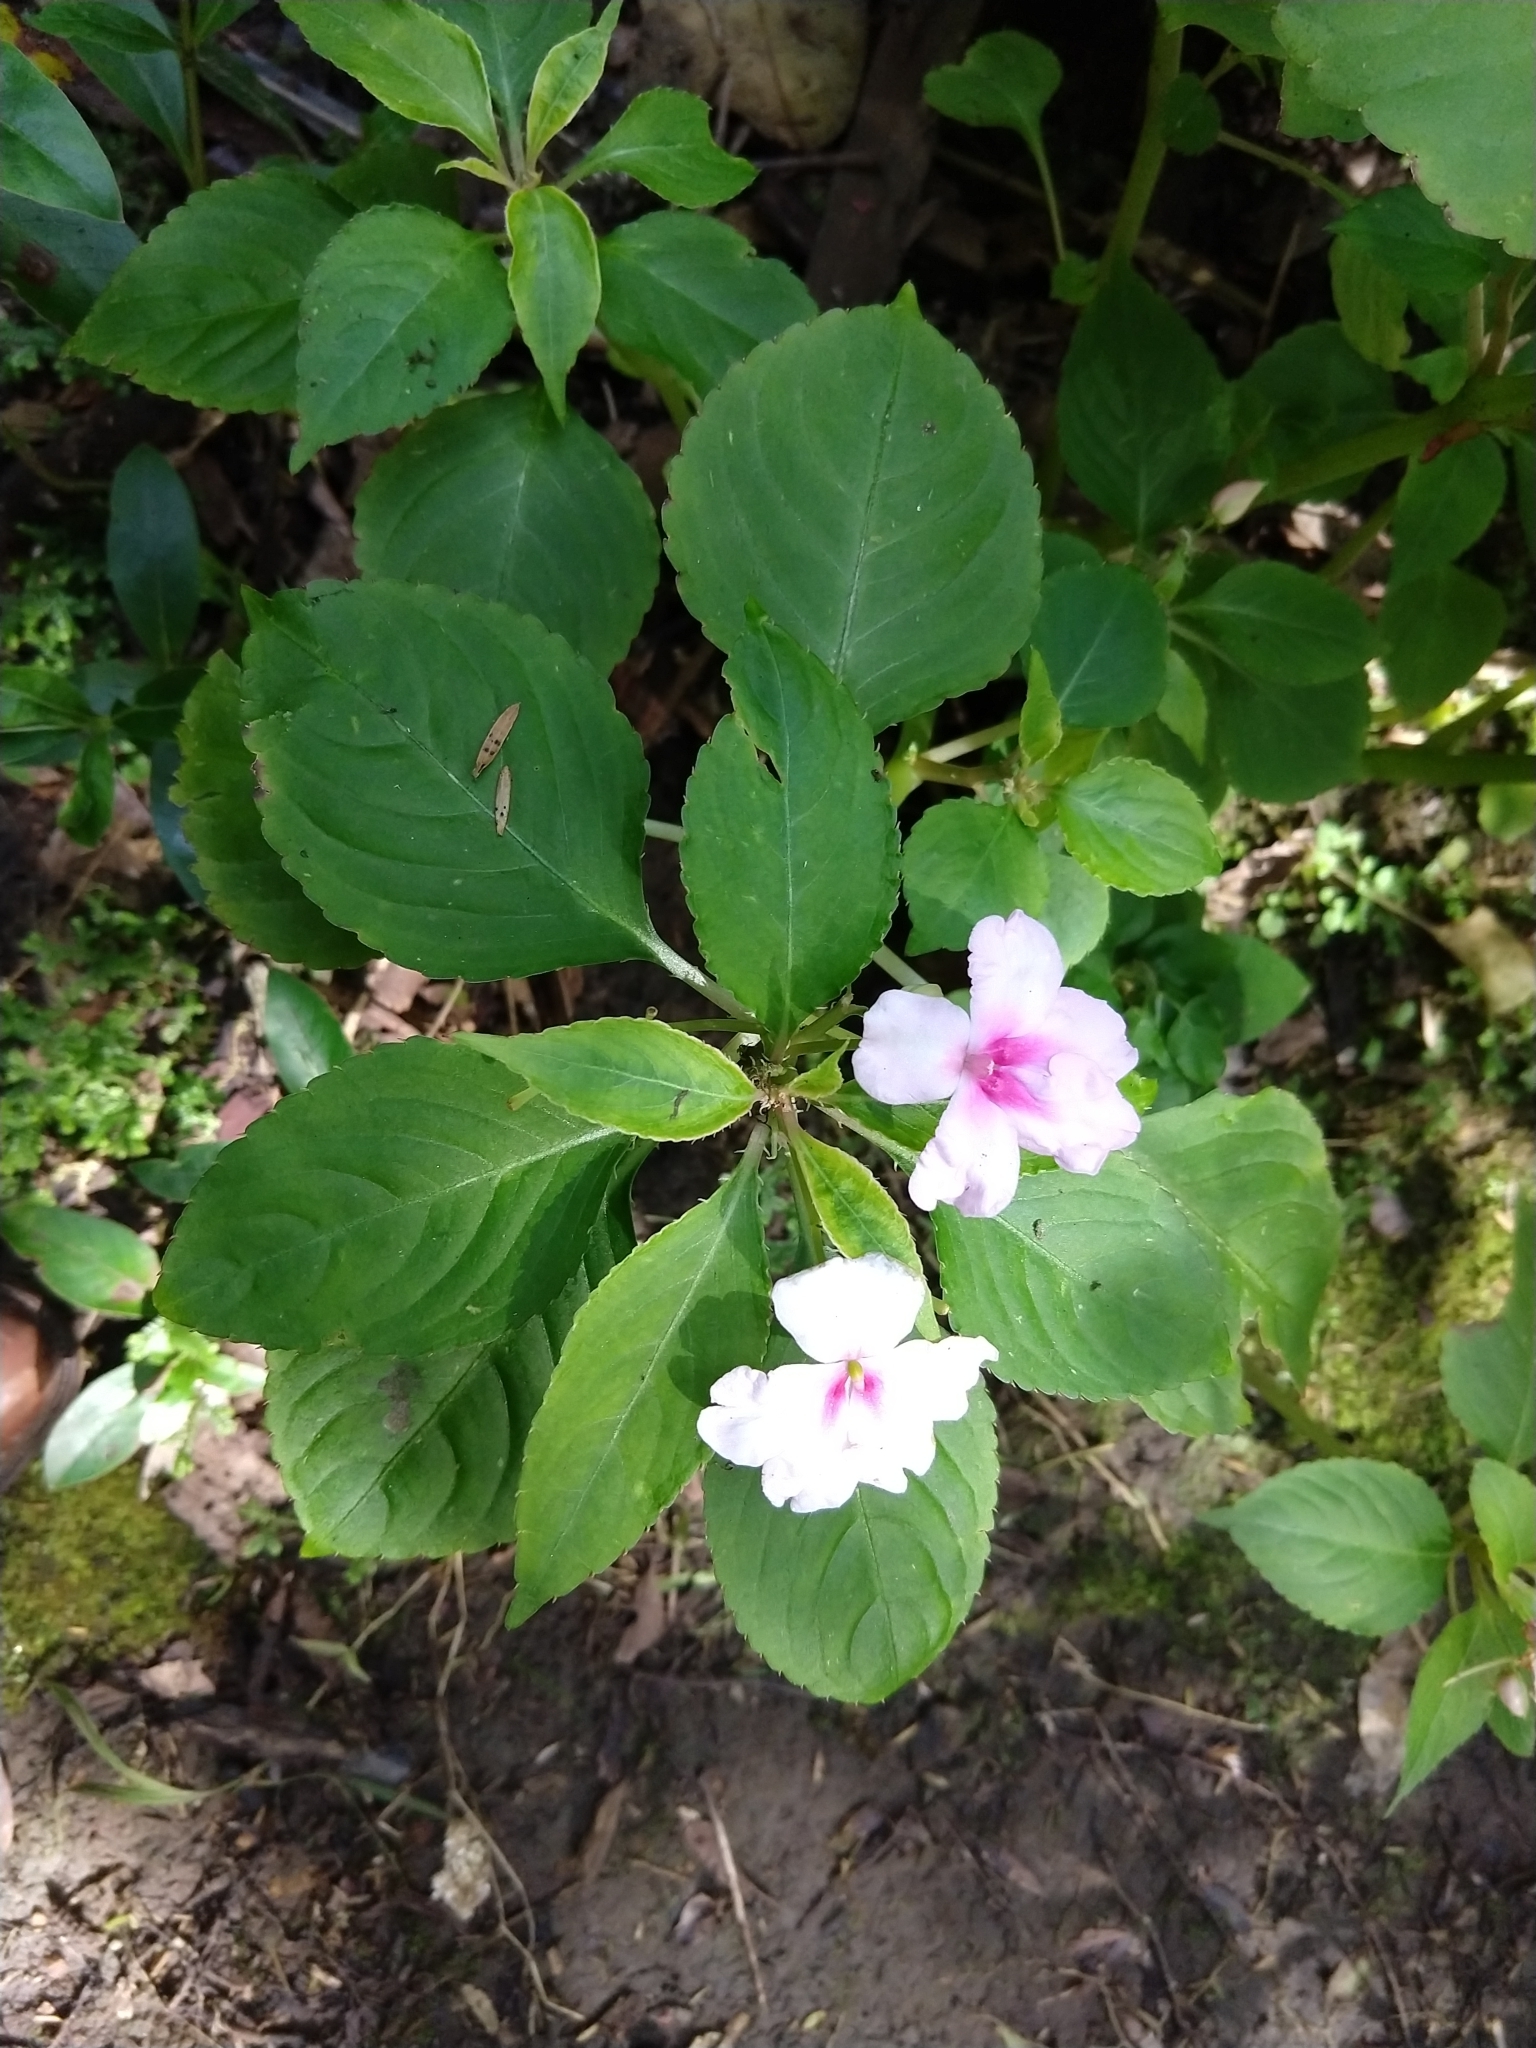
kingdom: Plantae
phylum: Tracheophyta
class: Magnoliopsida
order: Ericales
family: Balsaminaceae
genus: Impatiens
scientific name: Impatiens walleriana
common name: Buzzy lizzy
